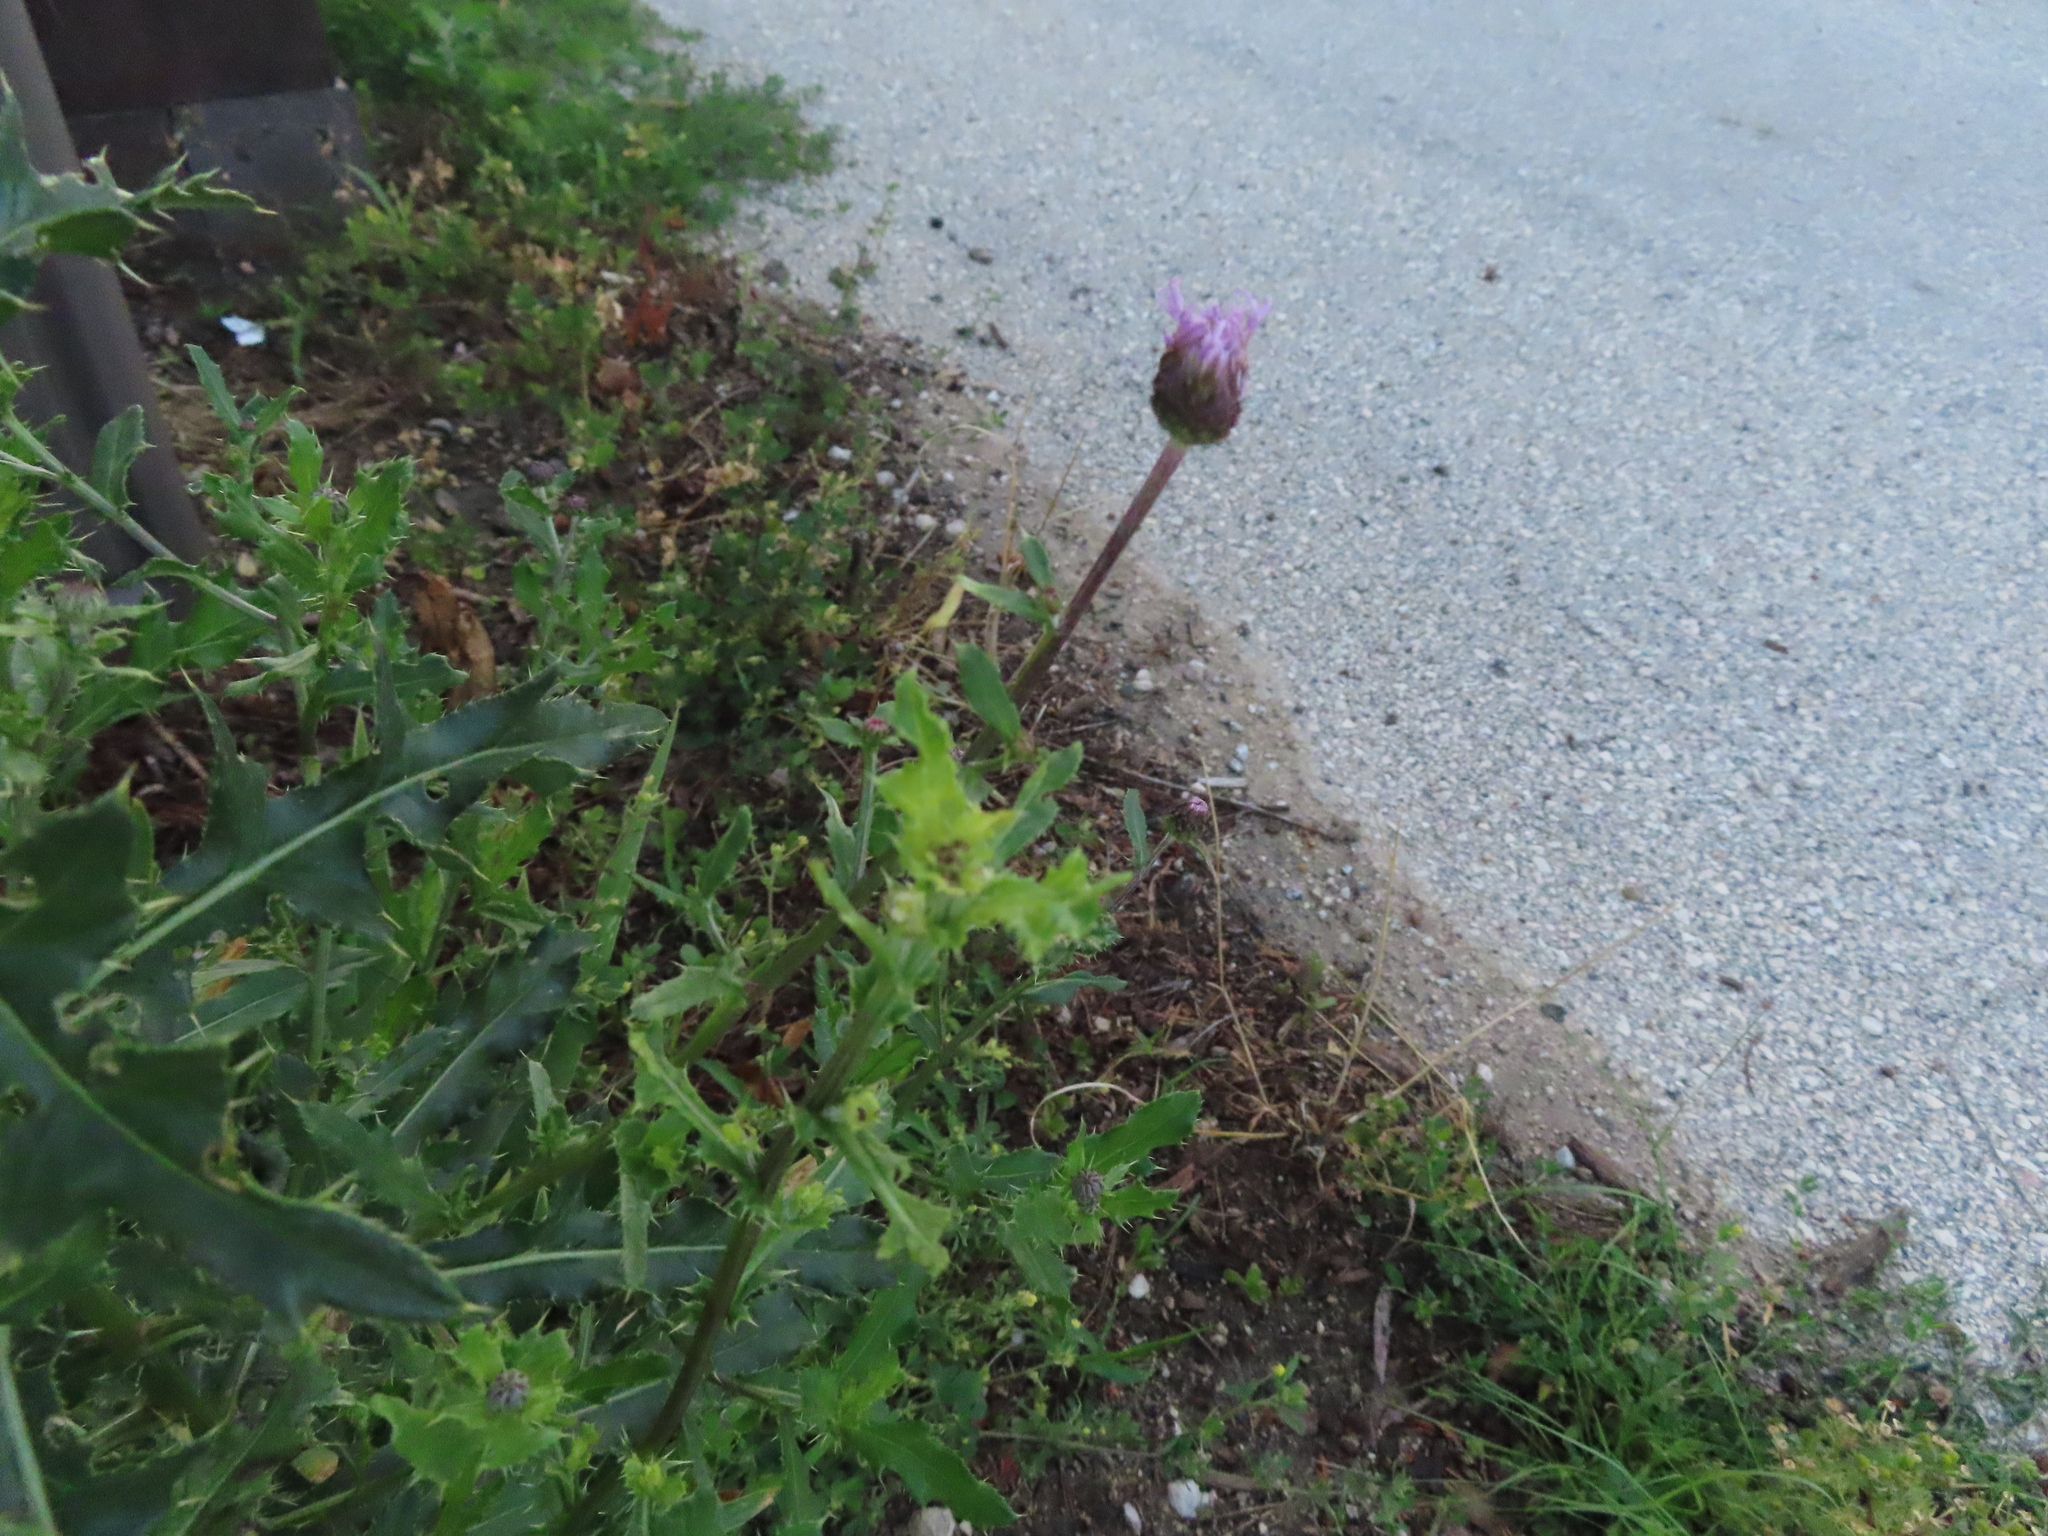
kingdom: Plantae
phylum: Tracheophyta
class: Magnoliopsida
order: Asterales
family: Asteraceae
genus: Cirsium
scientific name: Cirsium arvense
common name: Creeping thistle
